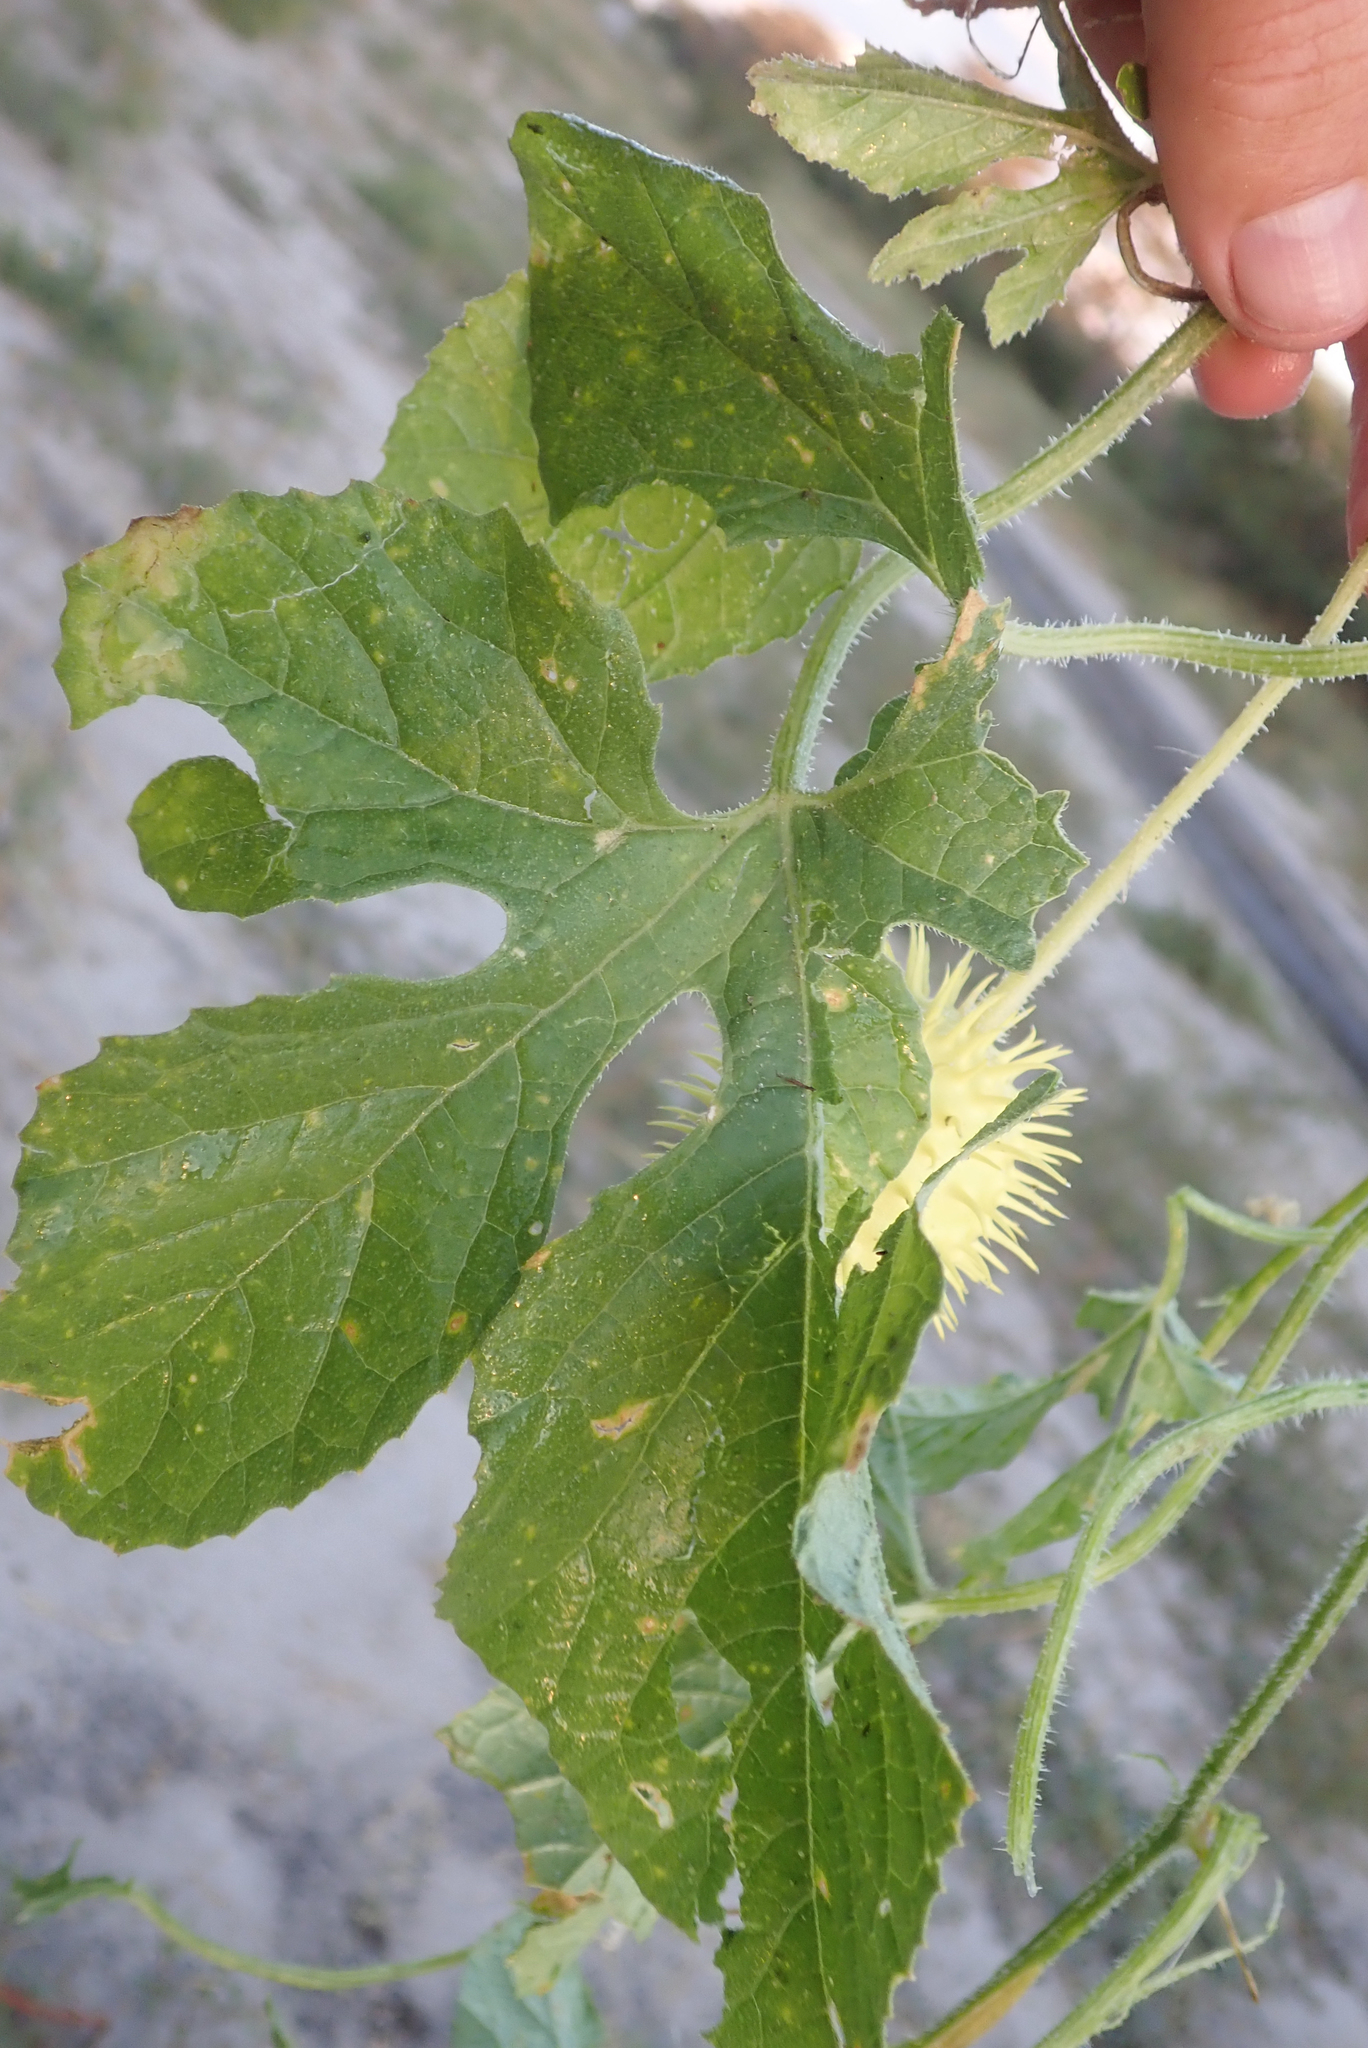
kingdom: Plantae
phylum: Tracheophyta
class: Magnoliopsida
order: Cucurbitales
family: Cucurbitaceae
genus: Cucumis
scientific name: Cucumis anguria
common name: West indian gherkin
